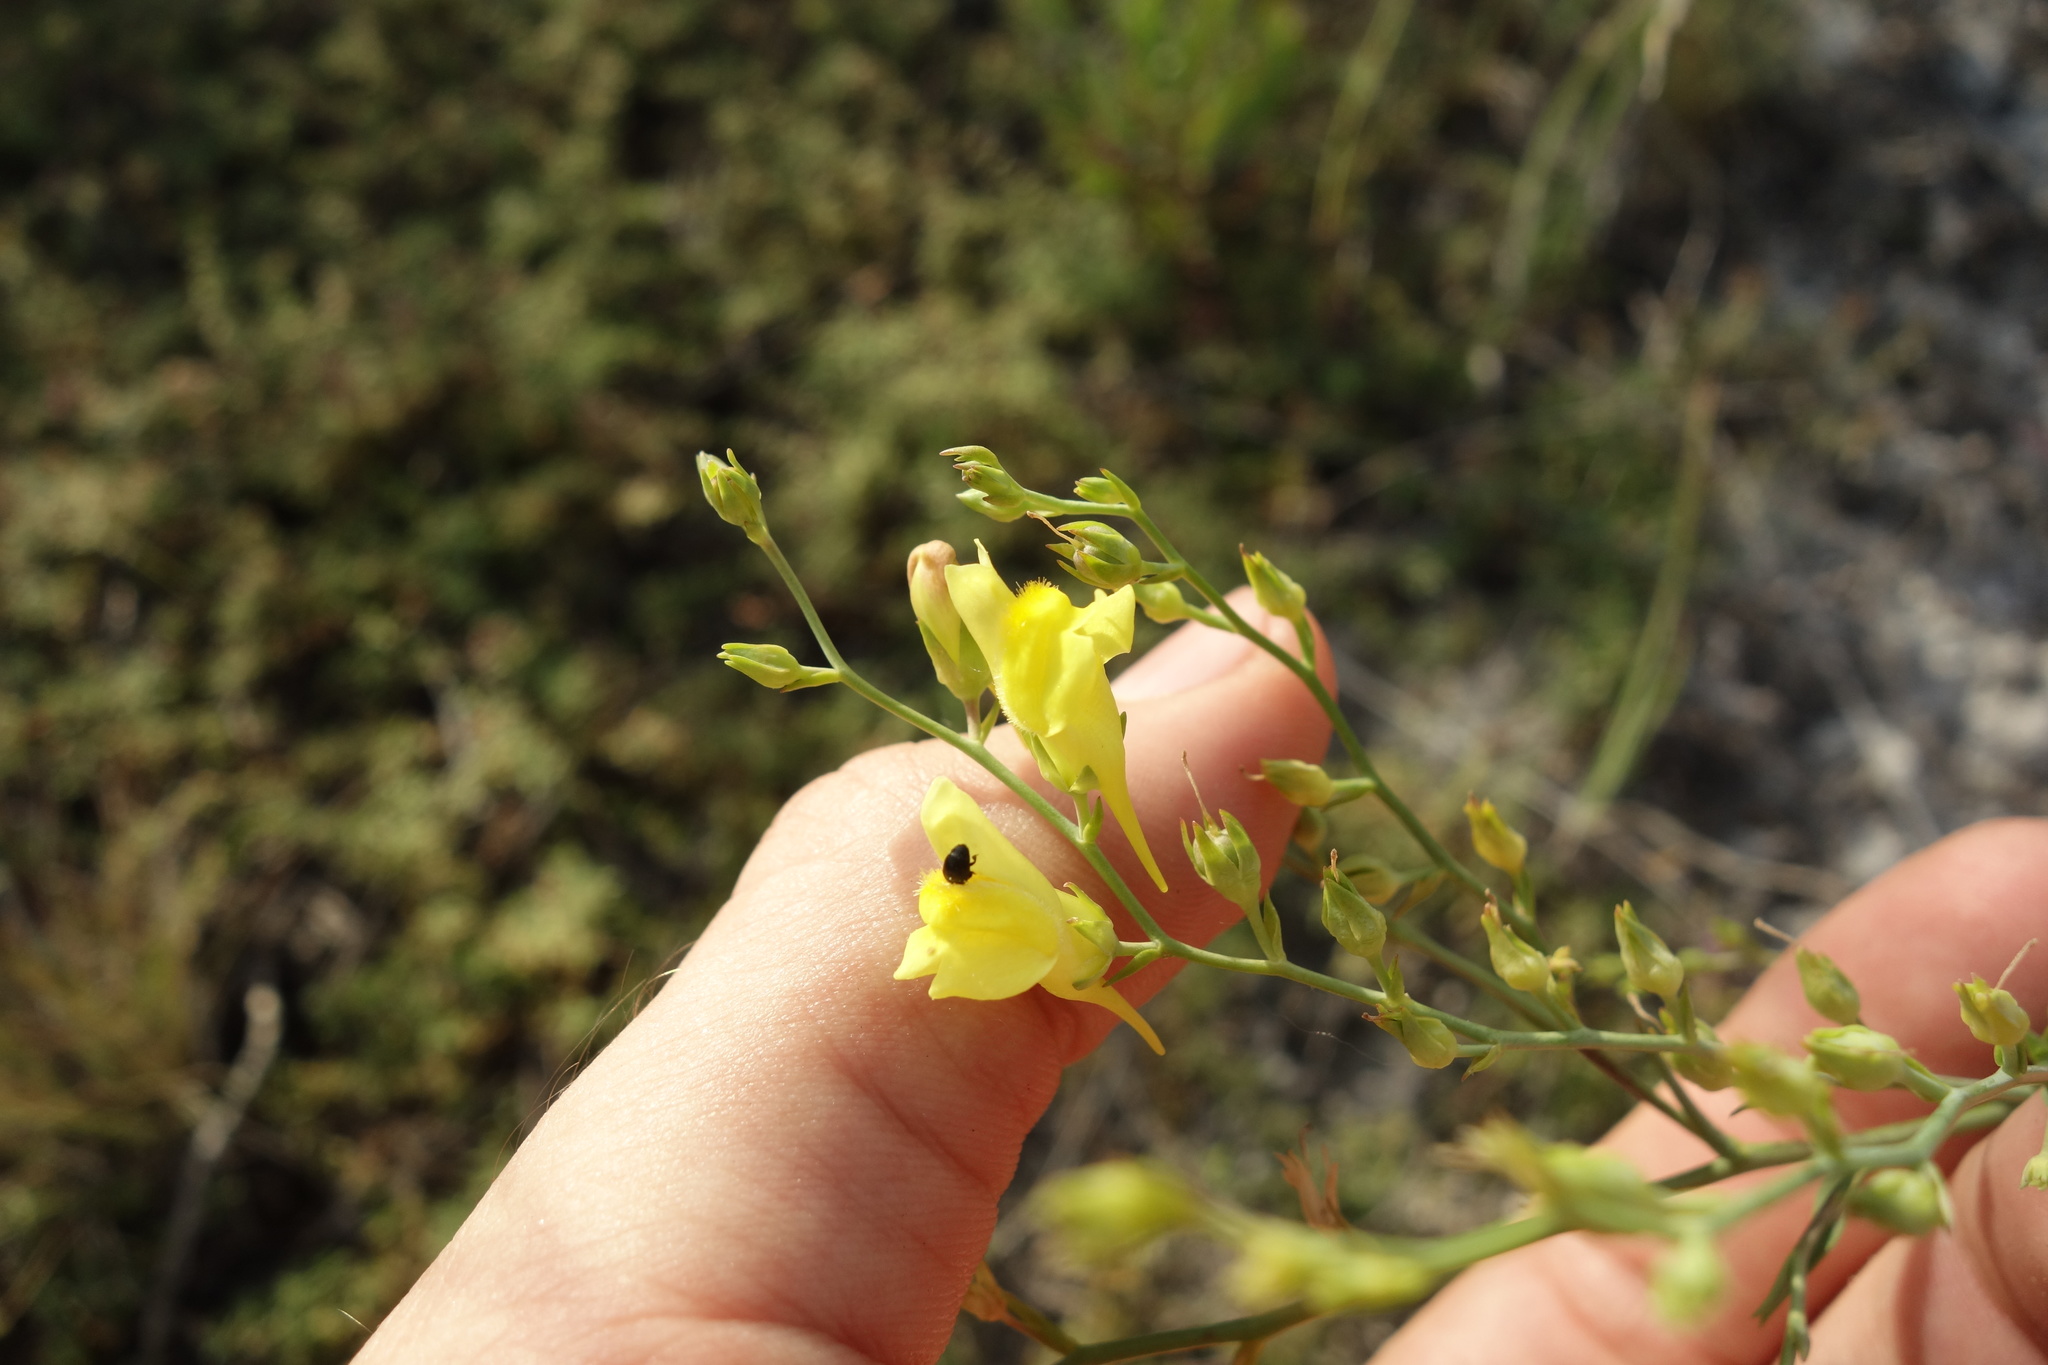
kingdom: Plantae
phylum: Tracheophyta
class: Magnoliopsida
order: Lamiales
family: Plantaginaceae
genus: Linaria
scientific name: Linaria genistifolia
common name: Broomleaf toadflax
